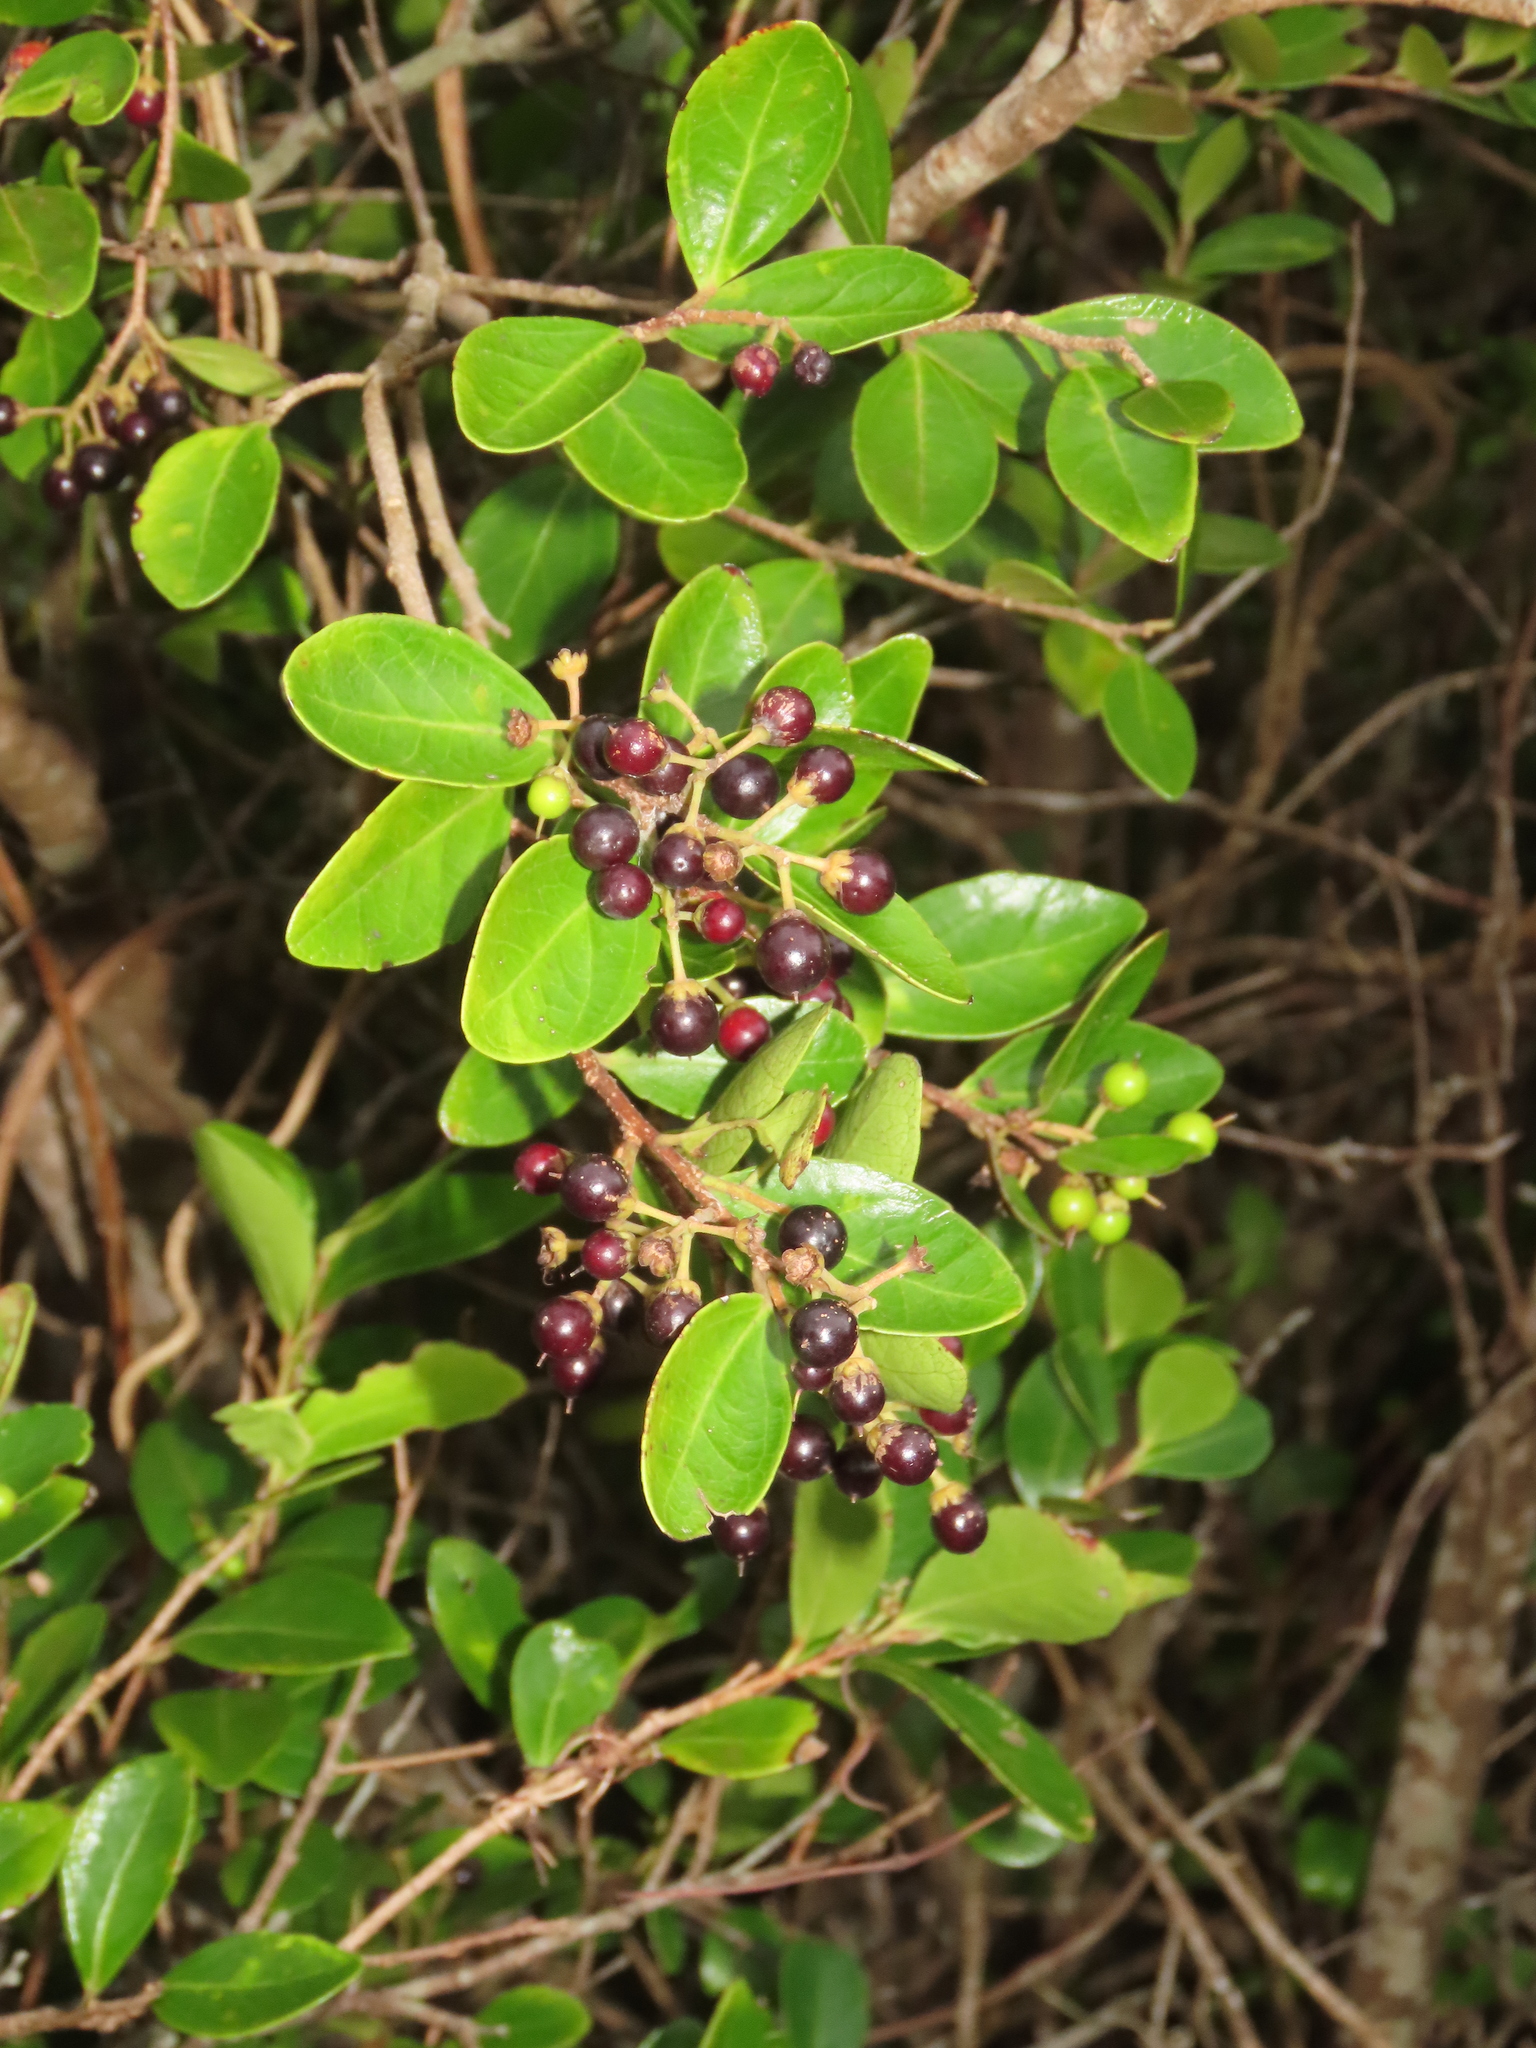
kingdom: Plantae
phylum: Tracheophyta
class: Magnoliopsida
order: Malpighiales
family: Salicaceae
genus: Scolopia
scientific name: Scolopia oldhamii
